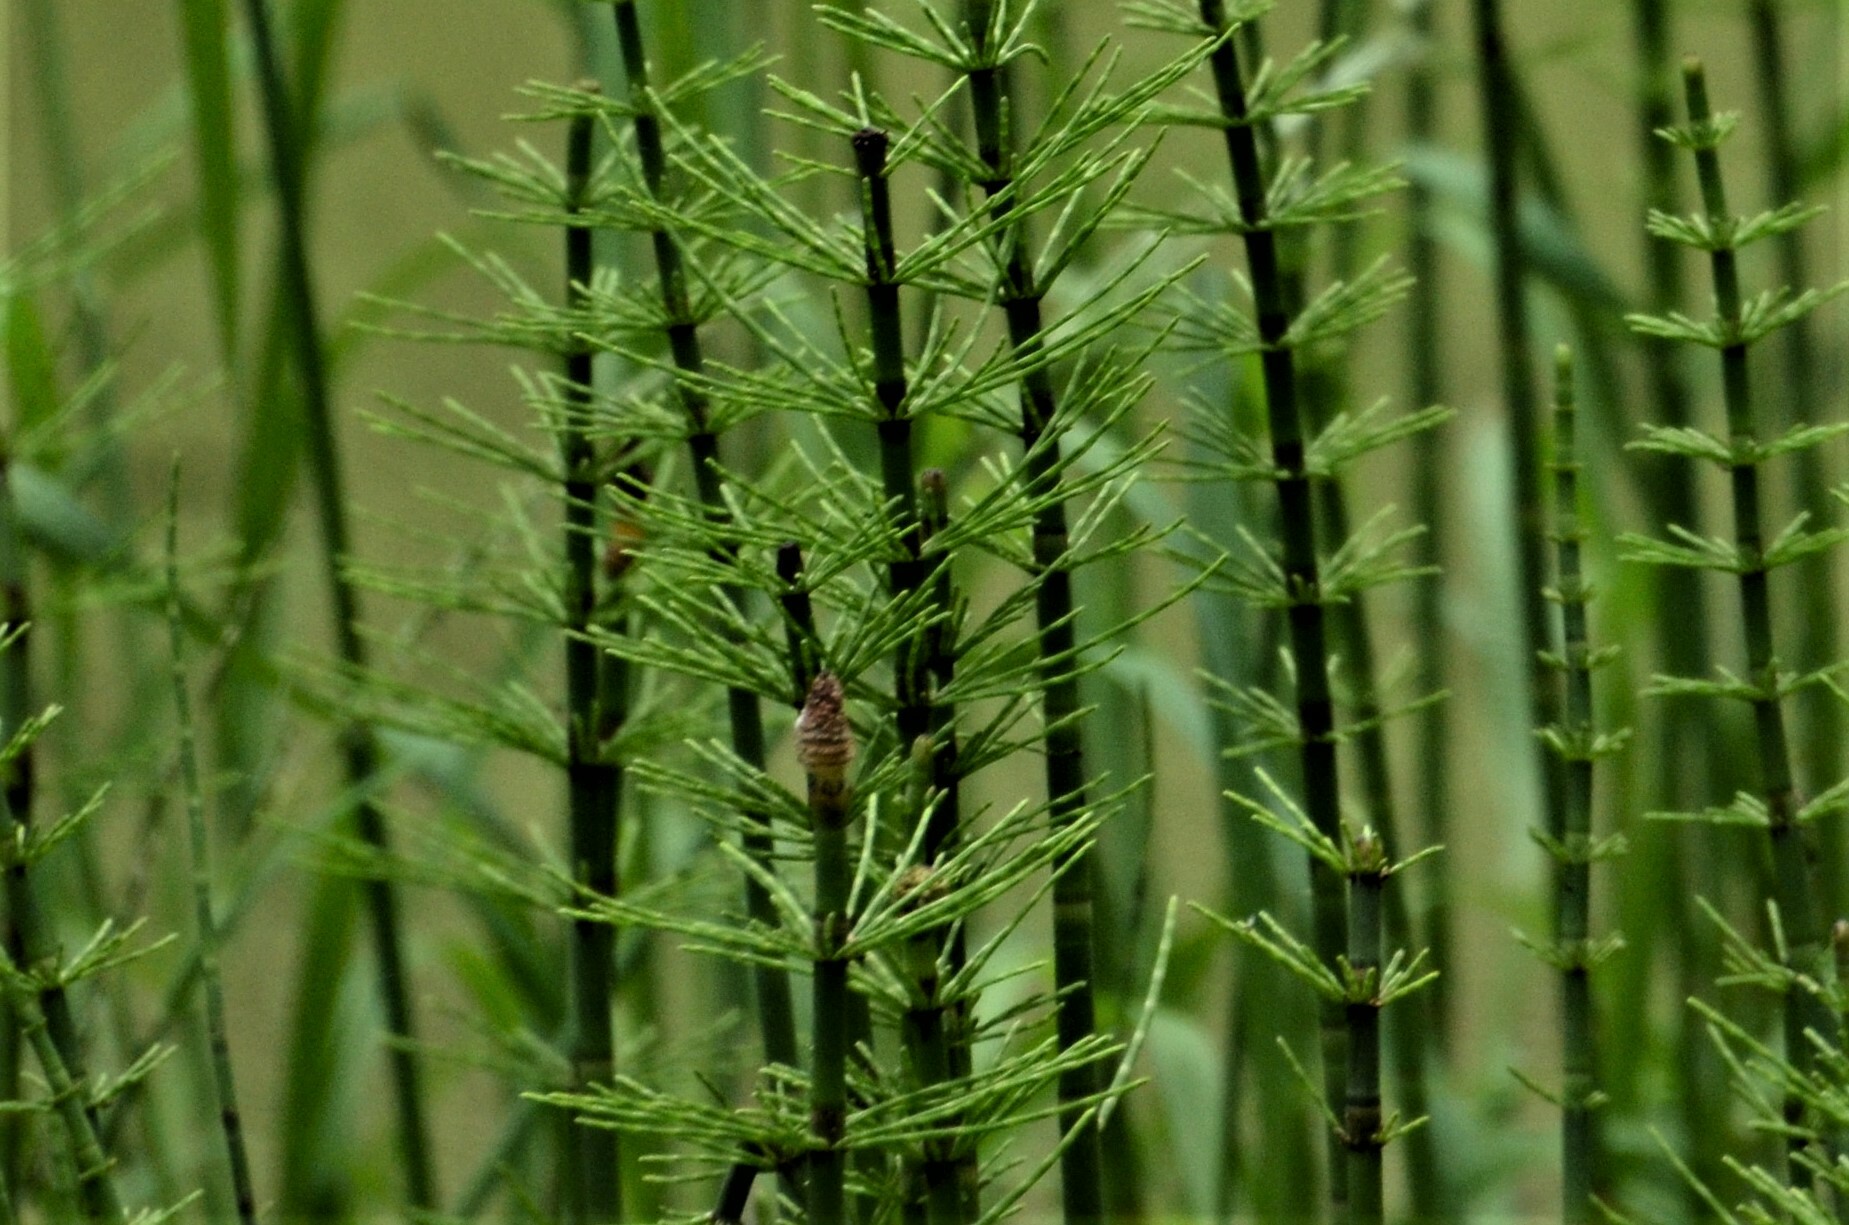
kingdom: Plantae
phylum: Tracheophyta
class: Polypodiopsida
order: Equisetales
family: Equisetaceae
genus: Equisetum
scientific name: Equisetum fluviatile
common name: Water horsetail
